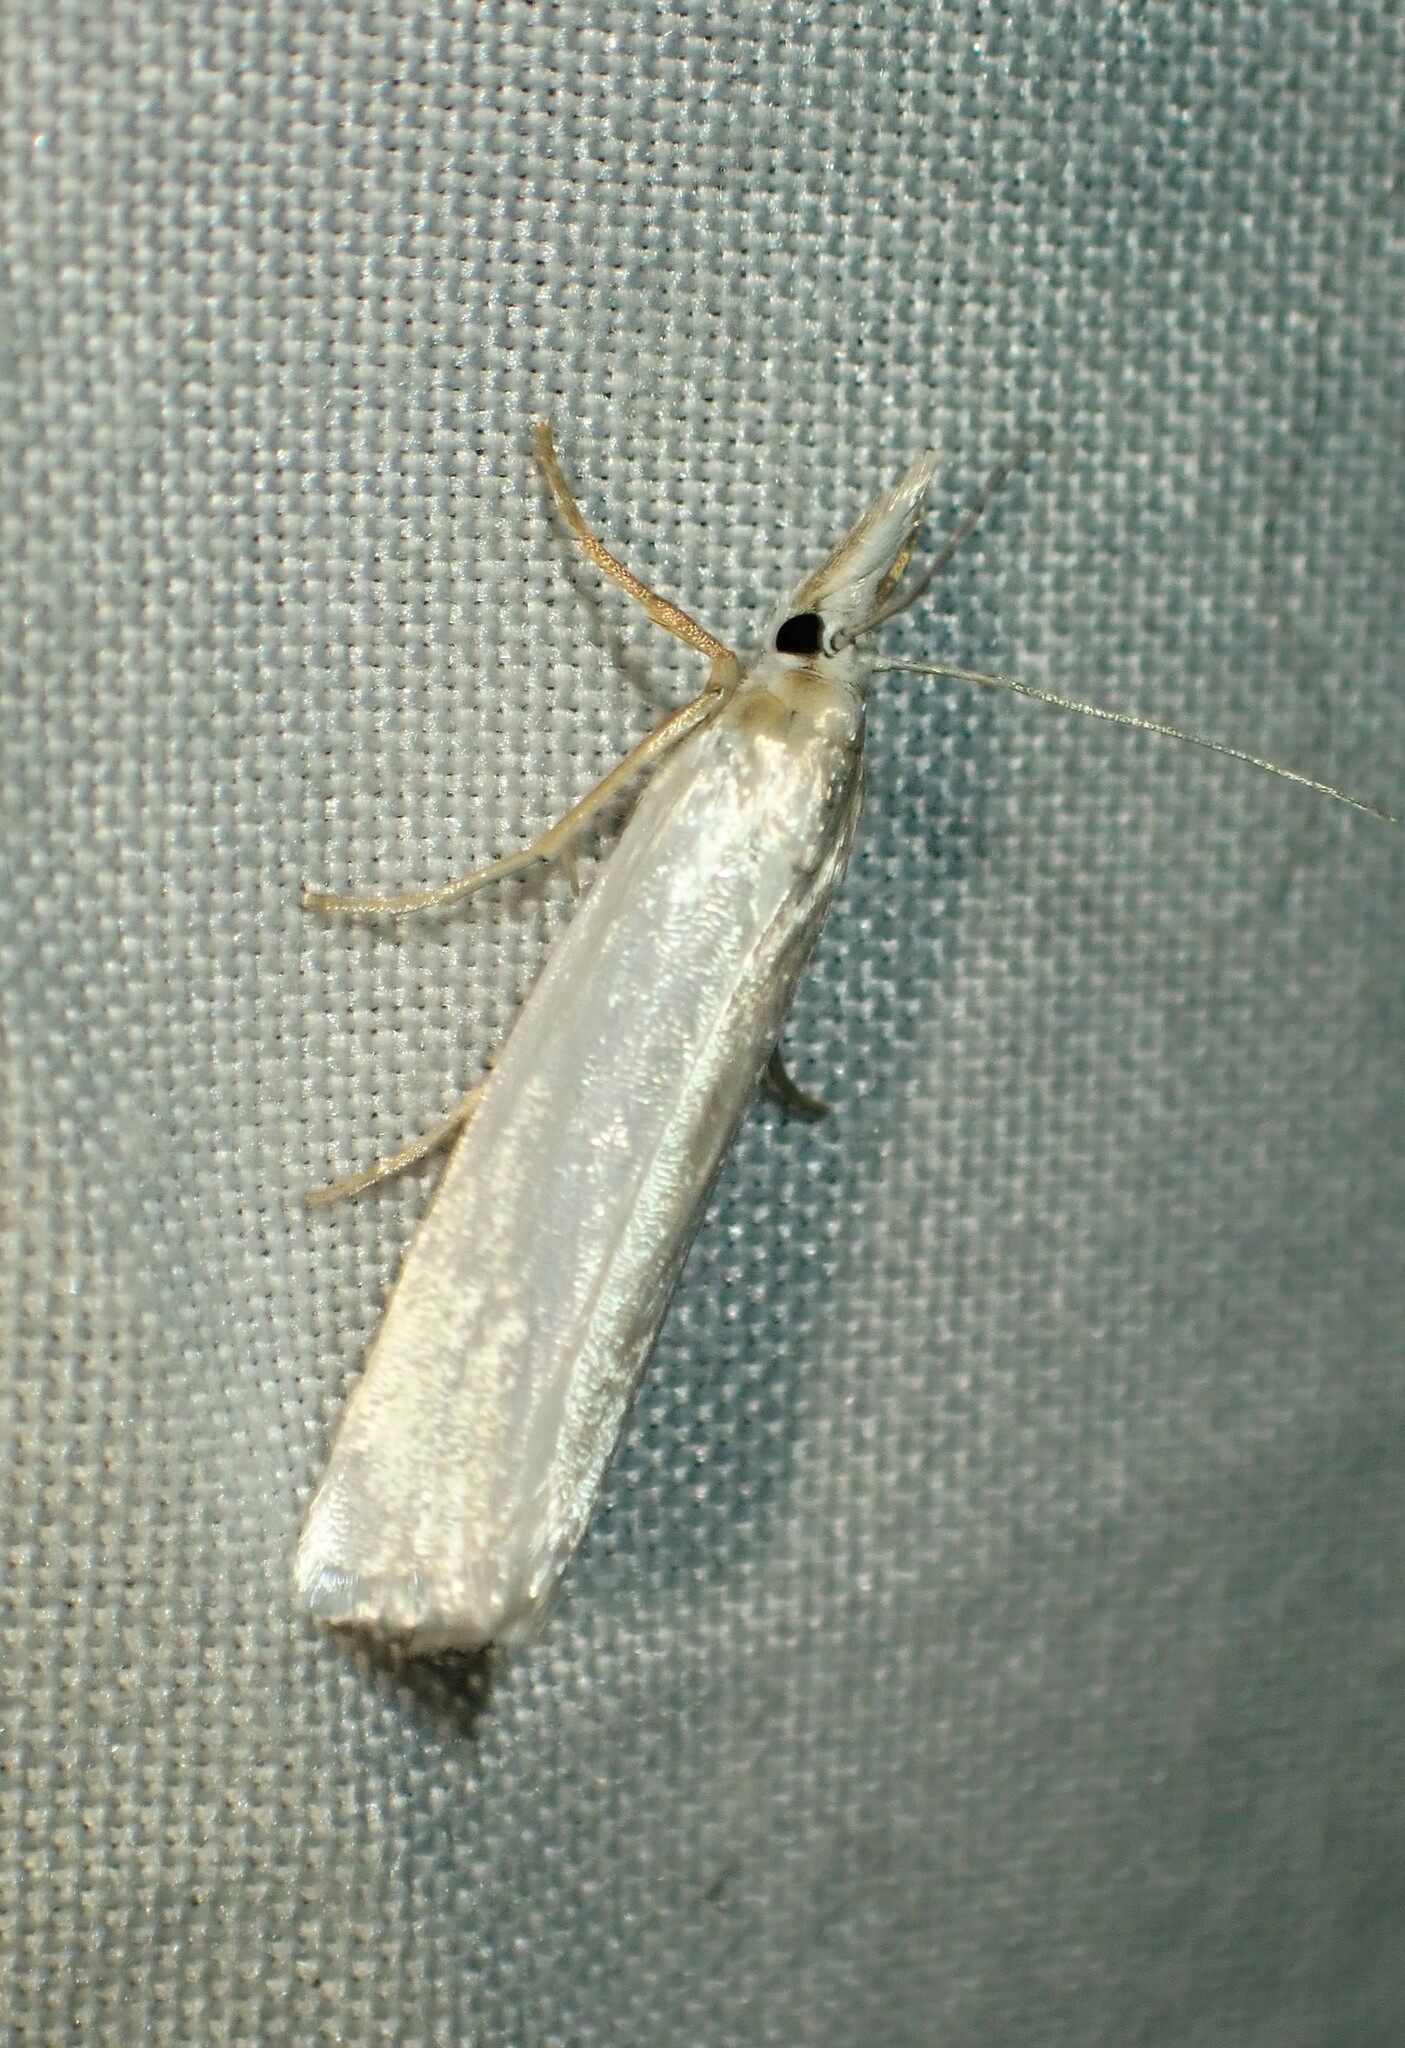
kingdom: Animalia
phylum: Arthropoda
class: Insecta
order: Lepidoptera
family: Crambidae
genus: Crambus
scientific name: Crambus perlellus
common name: Yellow satin veneer
